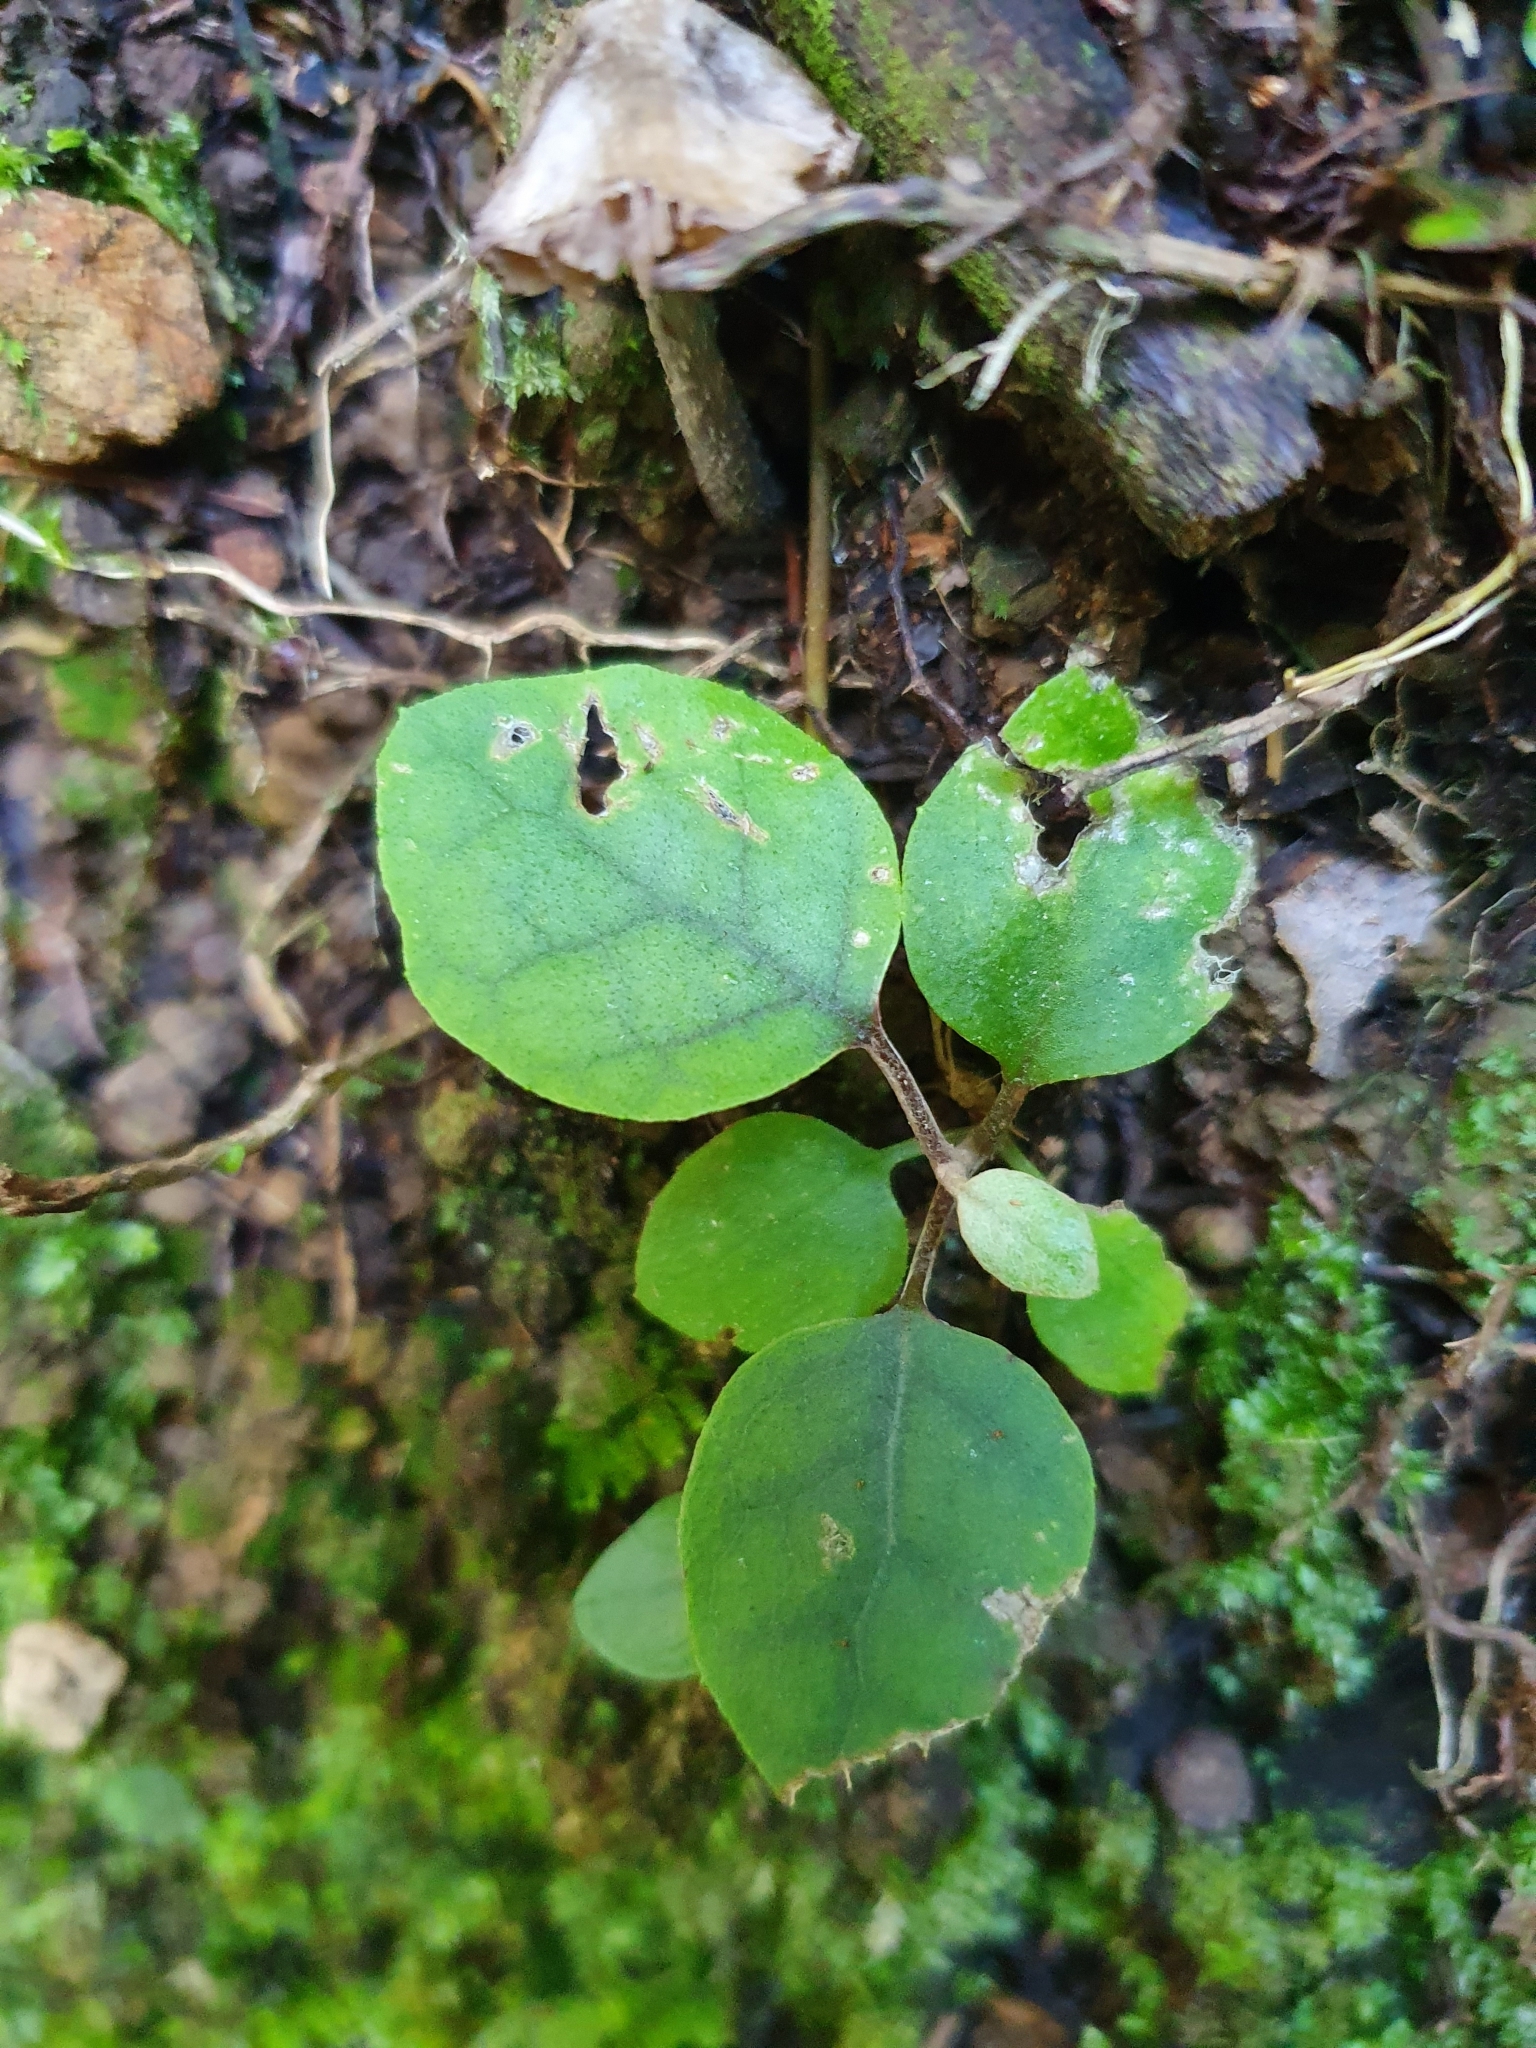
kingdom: Plantae
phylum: Tracheophyta
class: Magnoliopsida
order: Asterales
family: Asteraceae
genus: Brachyglottis
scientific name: Brachyglottis repanda
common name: Hedge ragwort
